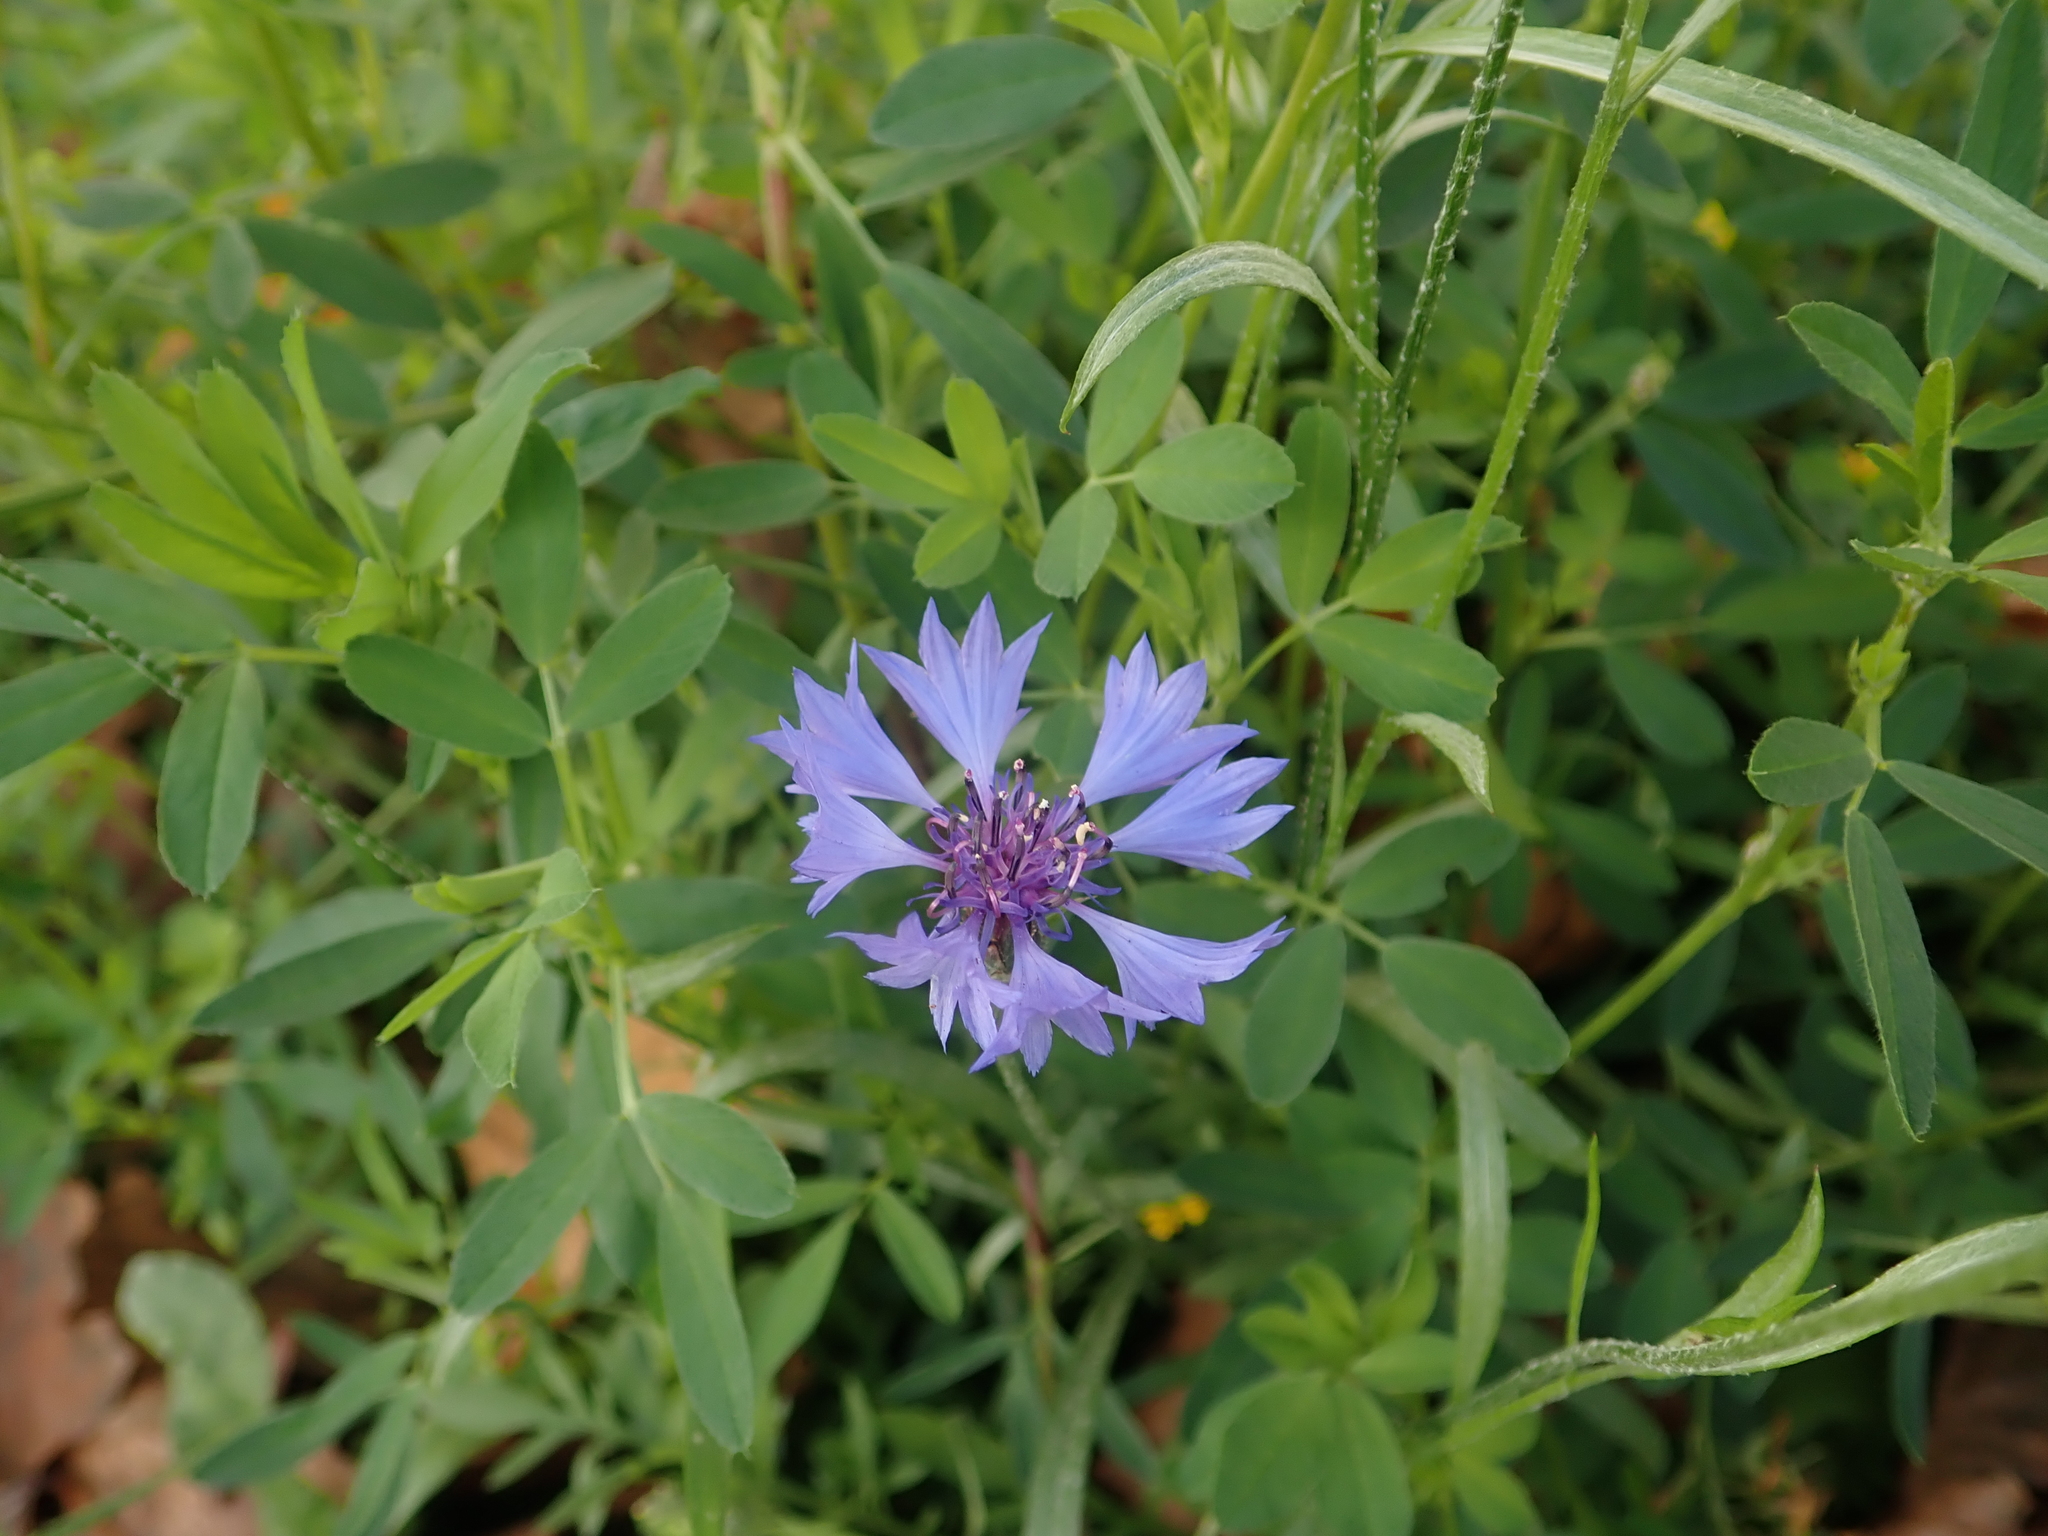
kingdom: Plantae
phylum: Tracheophyta
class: Magnoliopsida
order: Asterales
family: Asteraceae
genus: Centaurea
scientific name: Centaurea cyanus
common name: Cornflower
